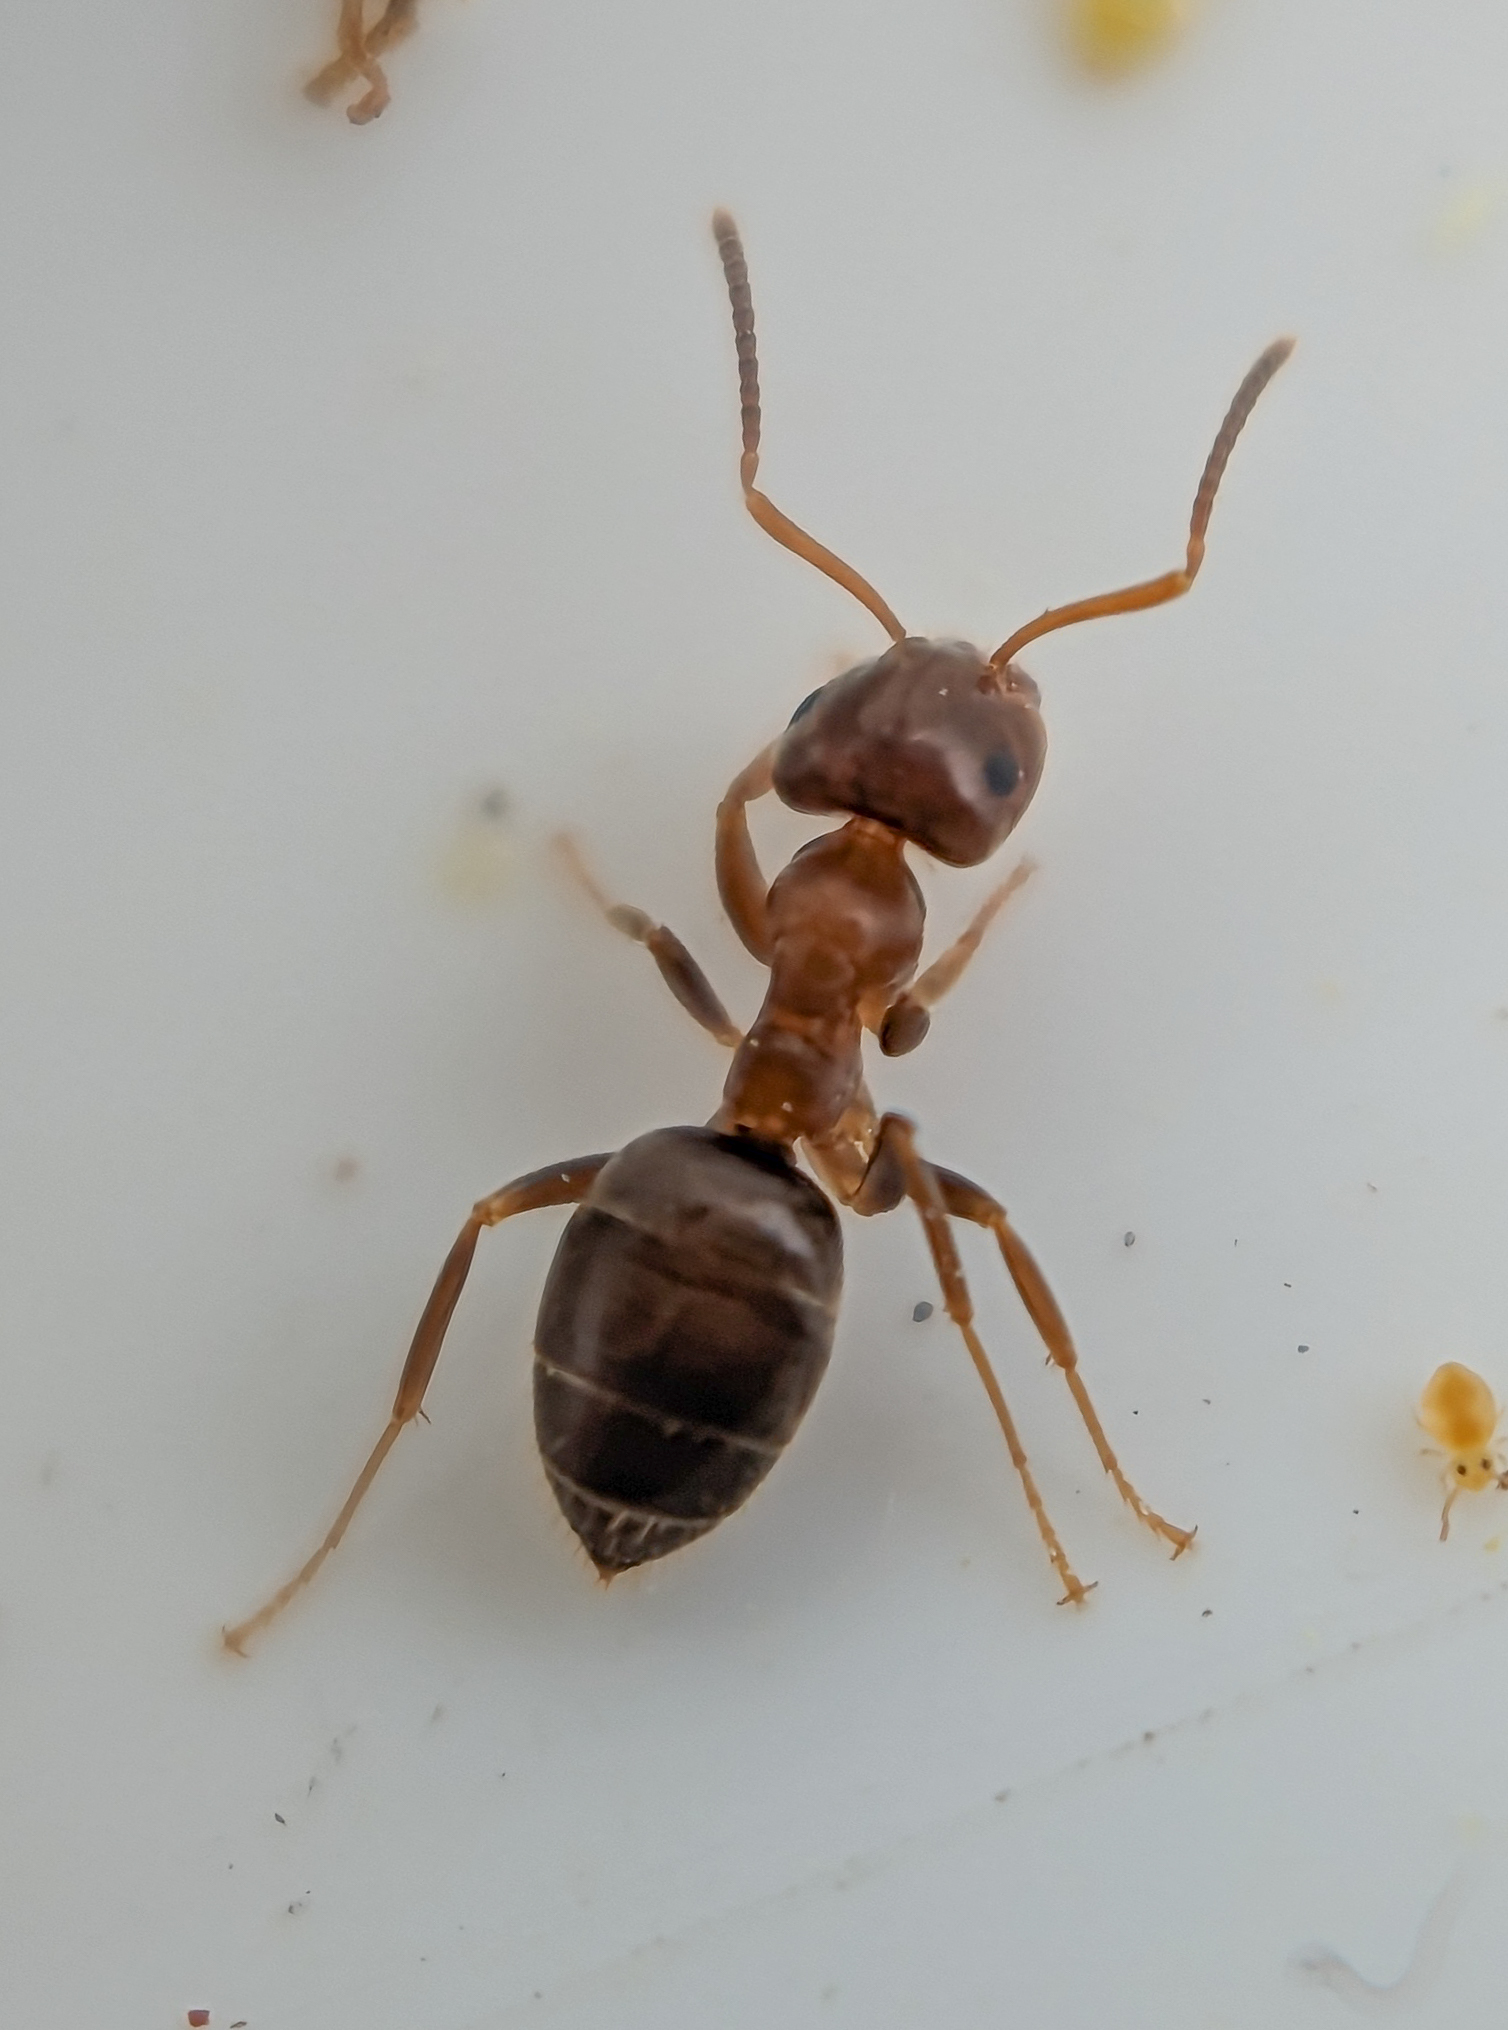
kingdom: Animalia
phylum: Arthropoda
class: Insecta
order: Hymenoptera
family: Formicidae
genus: Lasius
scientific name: Lasius brunneus
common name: Brown ant
